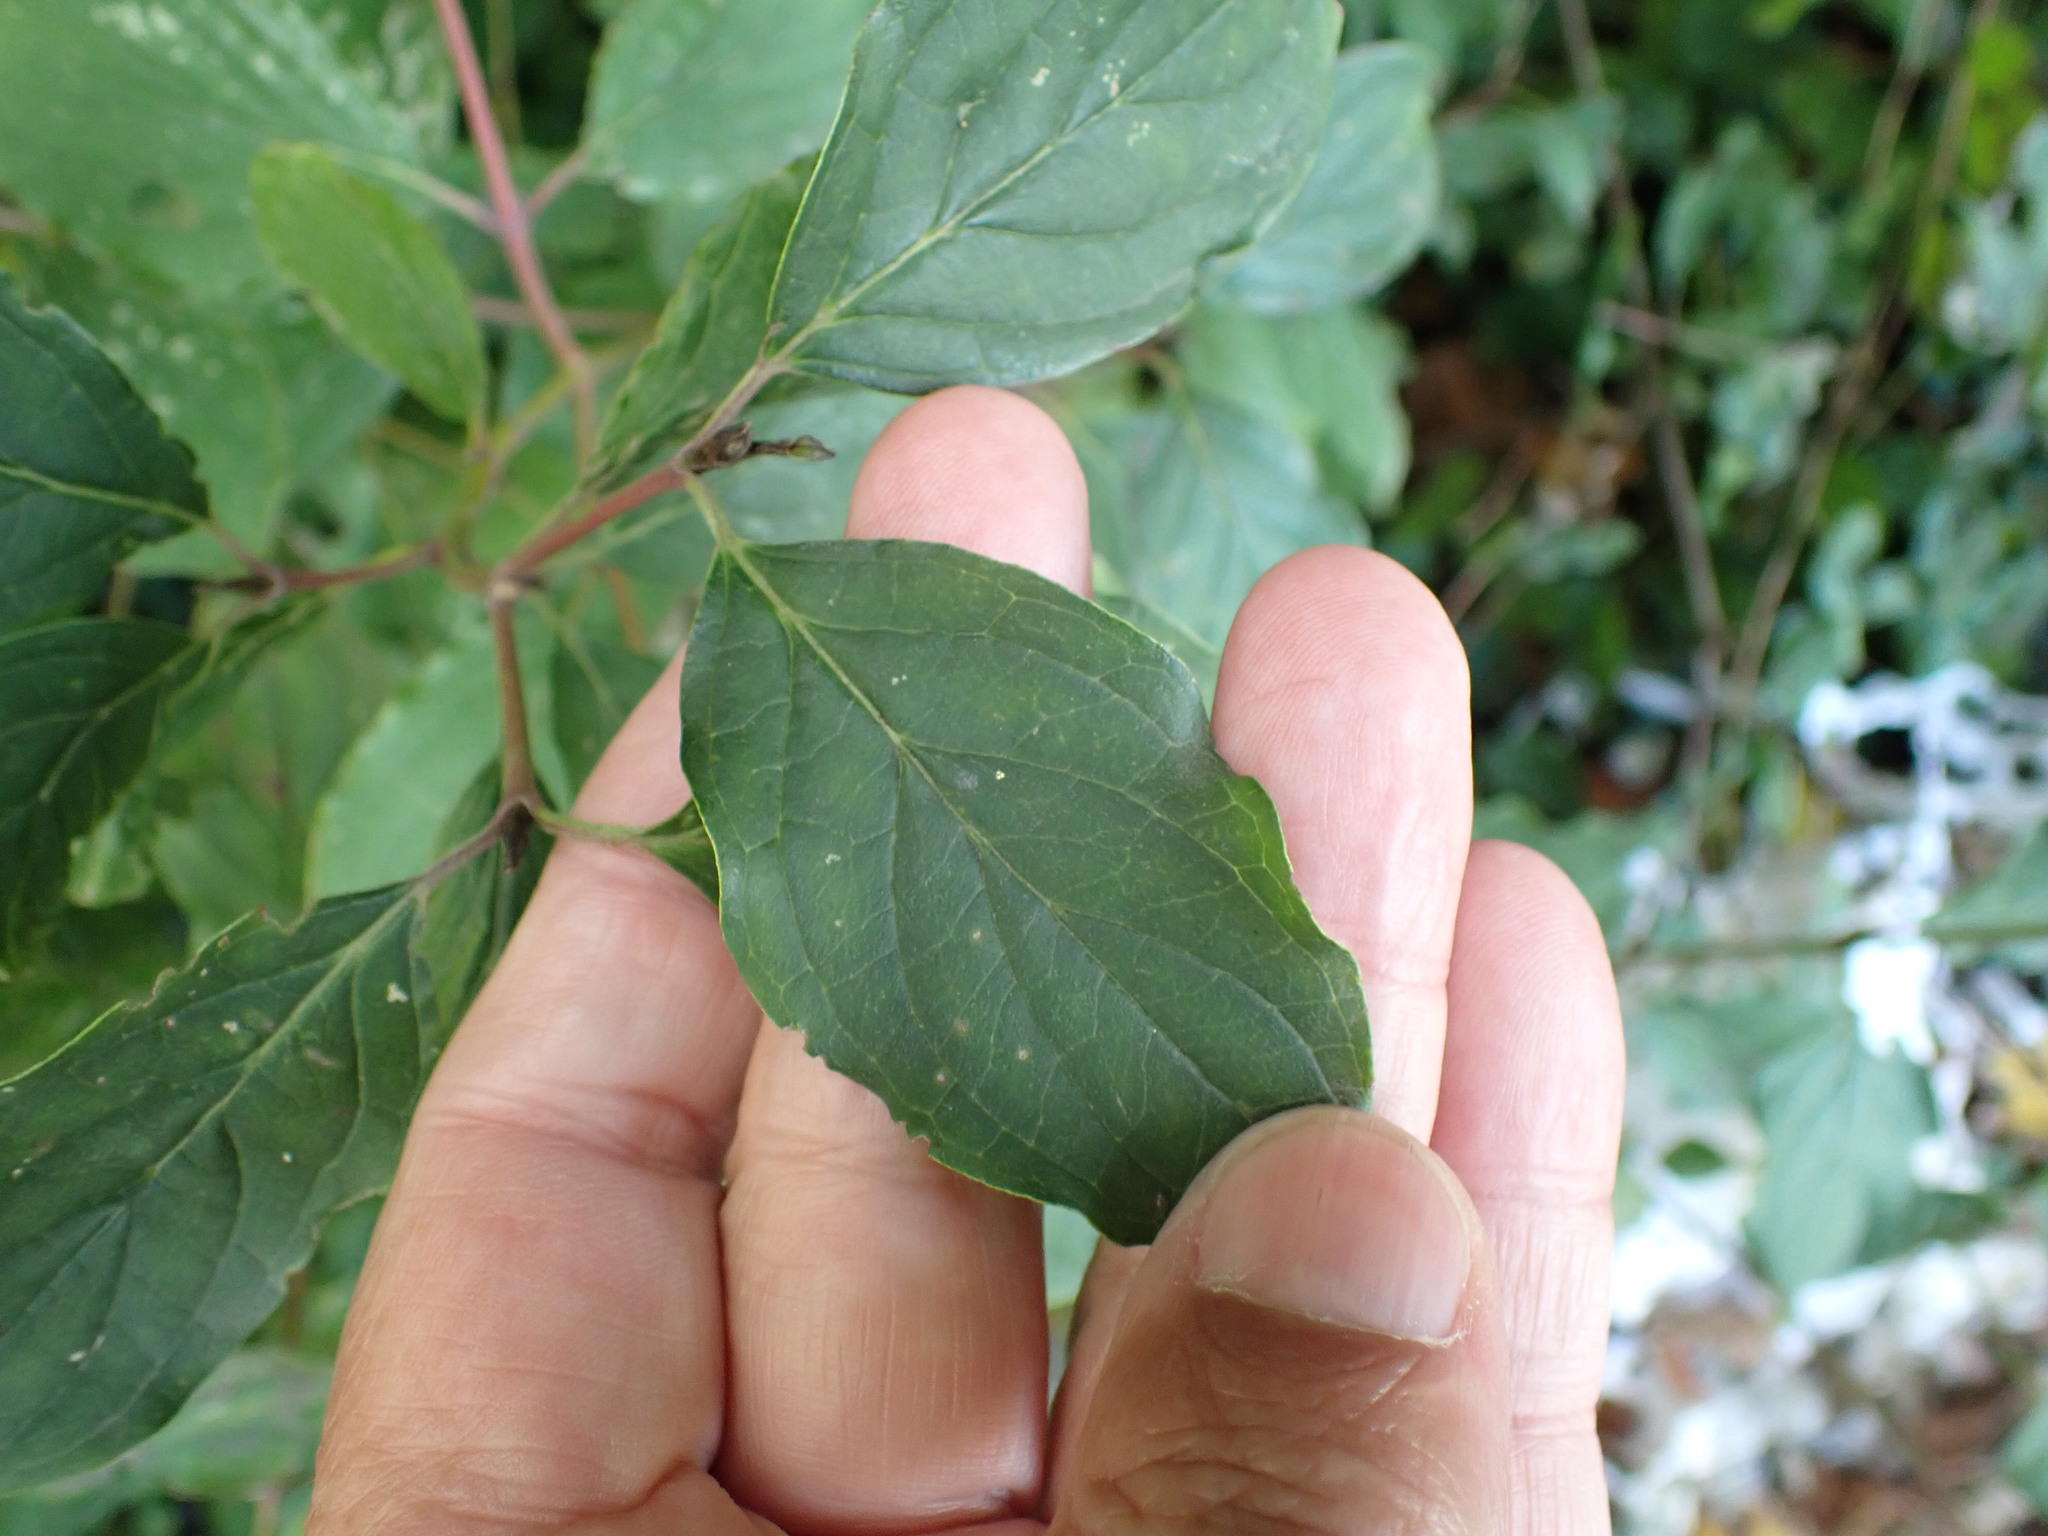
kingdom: Plantae
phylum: Tracheophyta
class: Magnoliopsida
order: Cornales
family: Cornaceae
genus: Cornus
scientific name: Cornus sanguinea
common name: Dogwood
